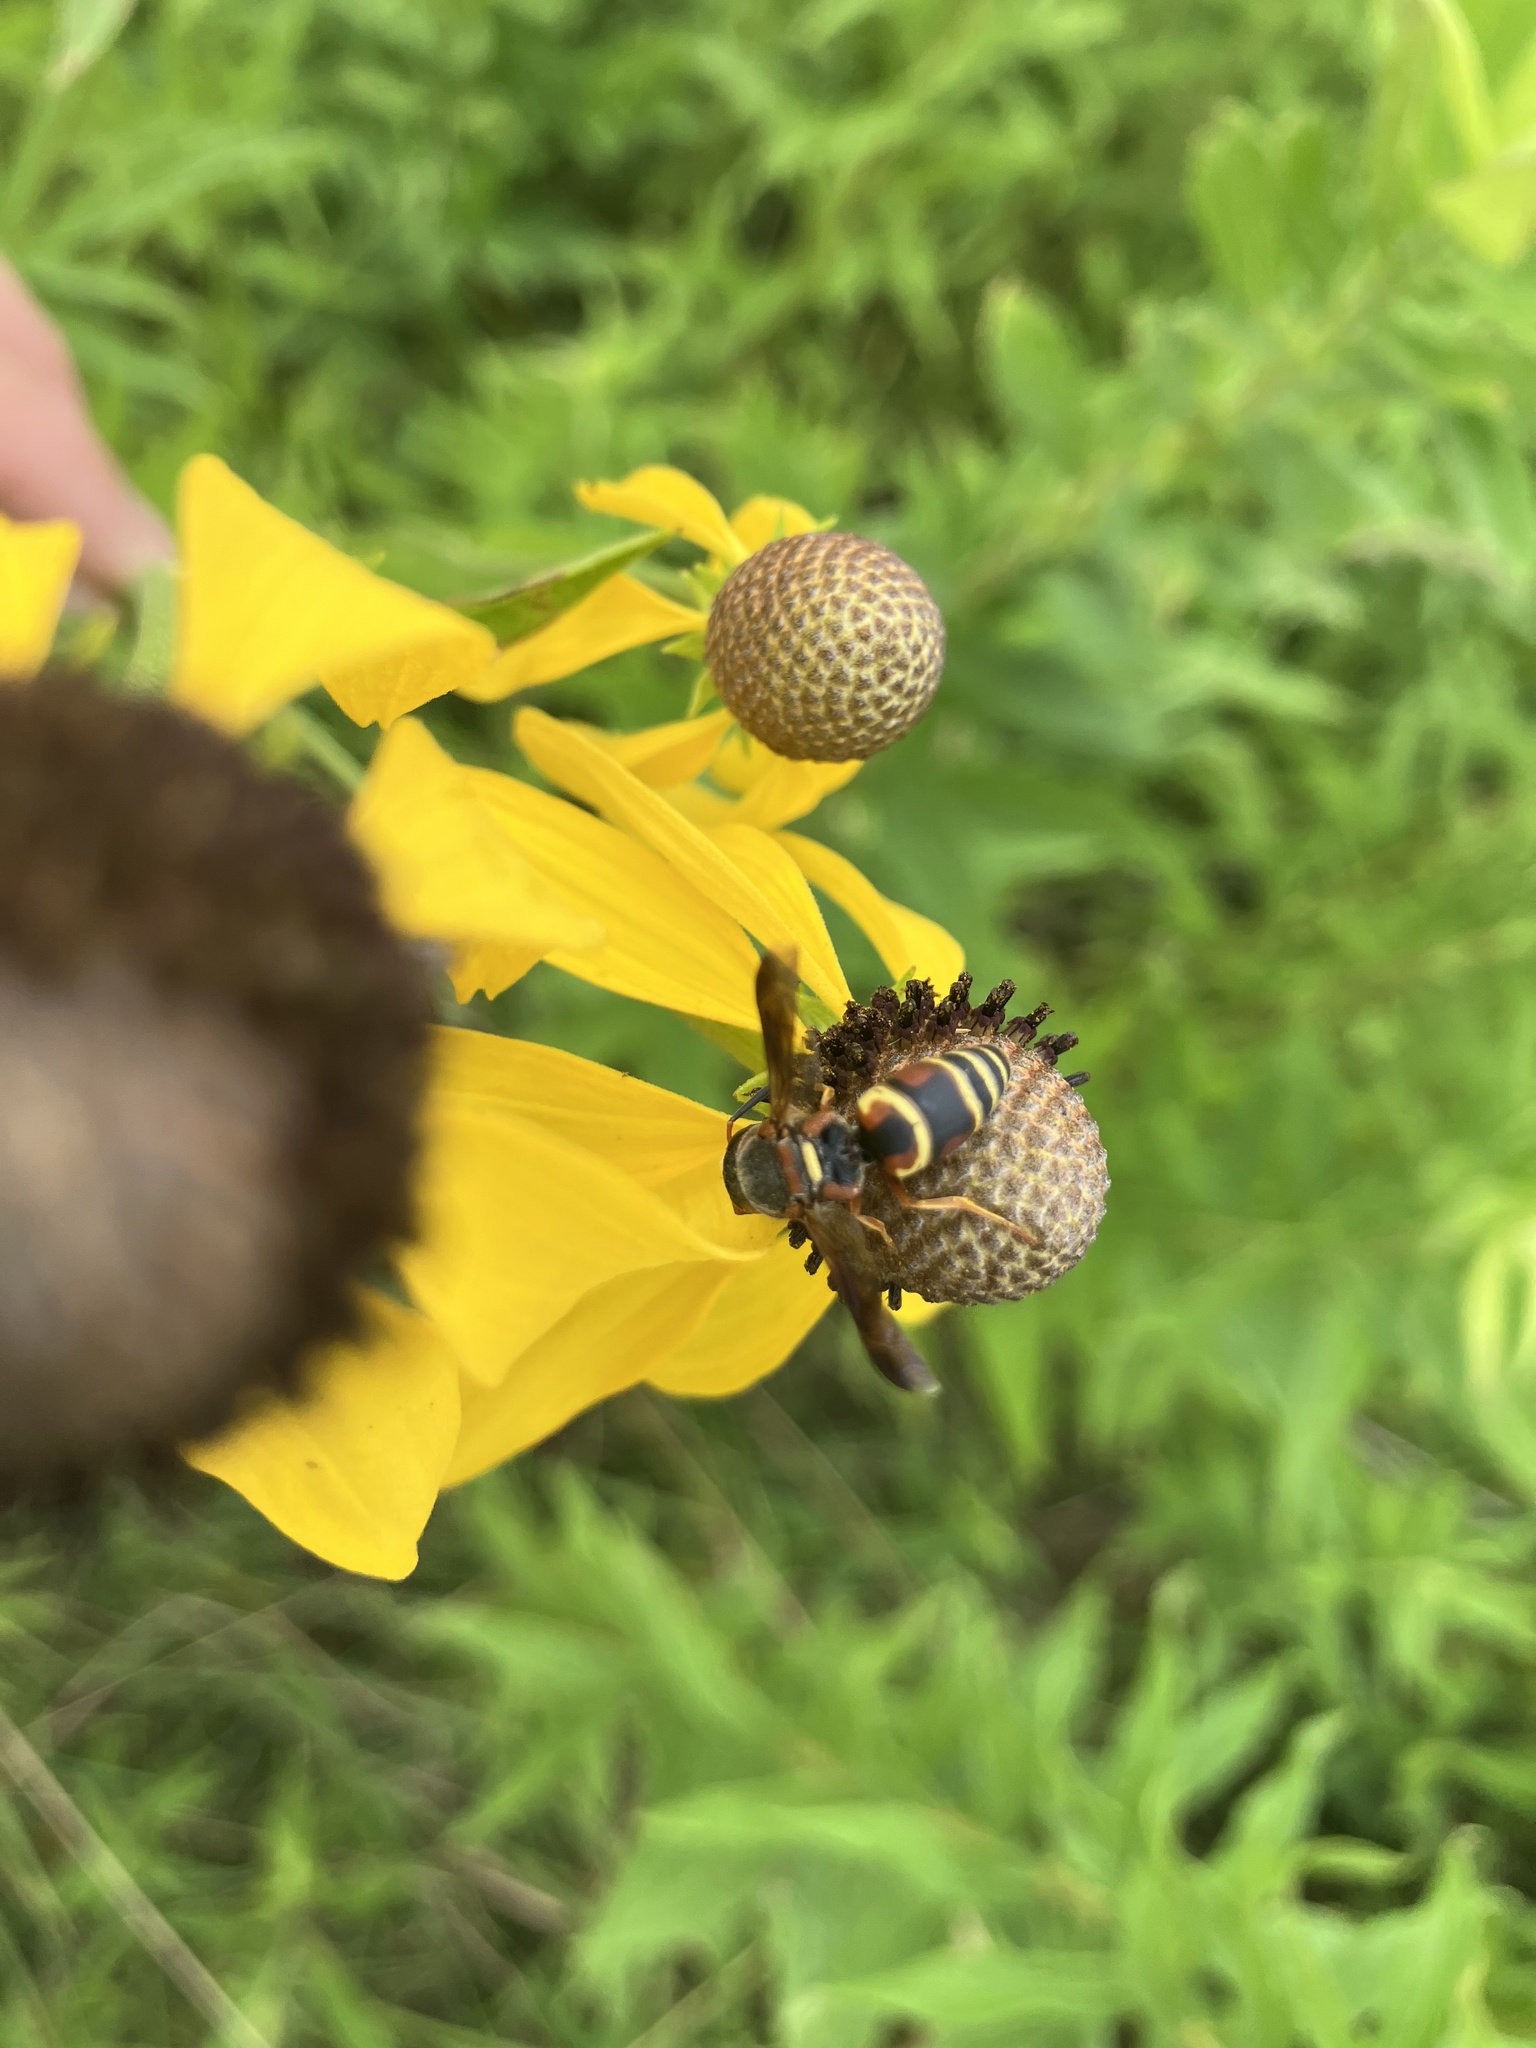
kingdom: Animalia
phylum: Arthropoda
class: Insecta
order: Hymenoptera
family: Eumenidae
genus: Euodynerus
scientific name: Euodynerus hidalgo
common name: Wasp
